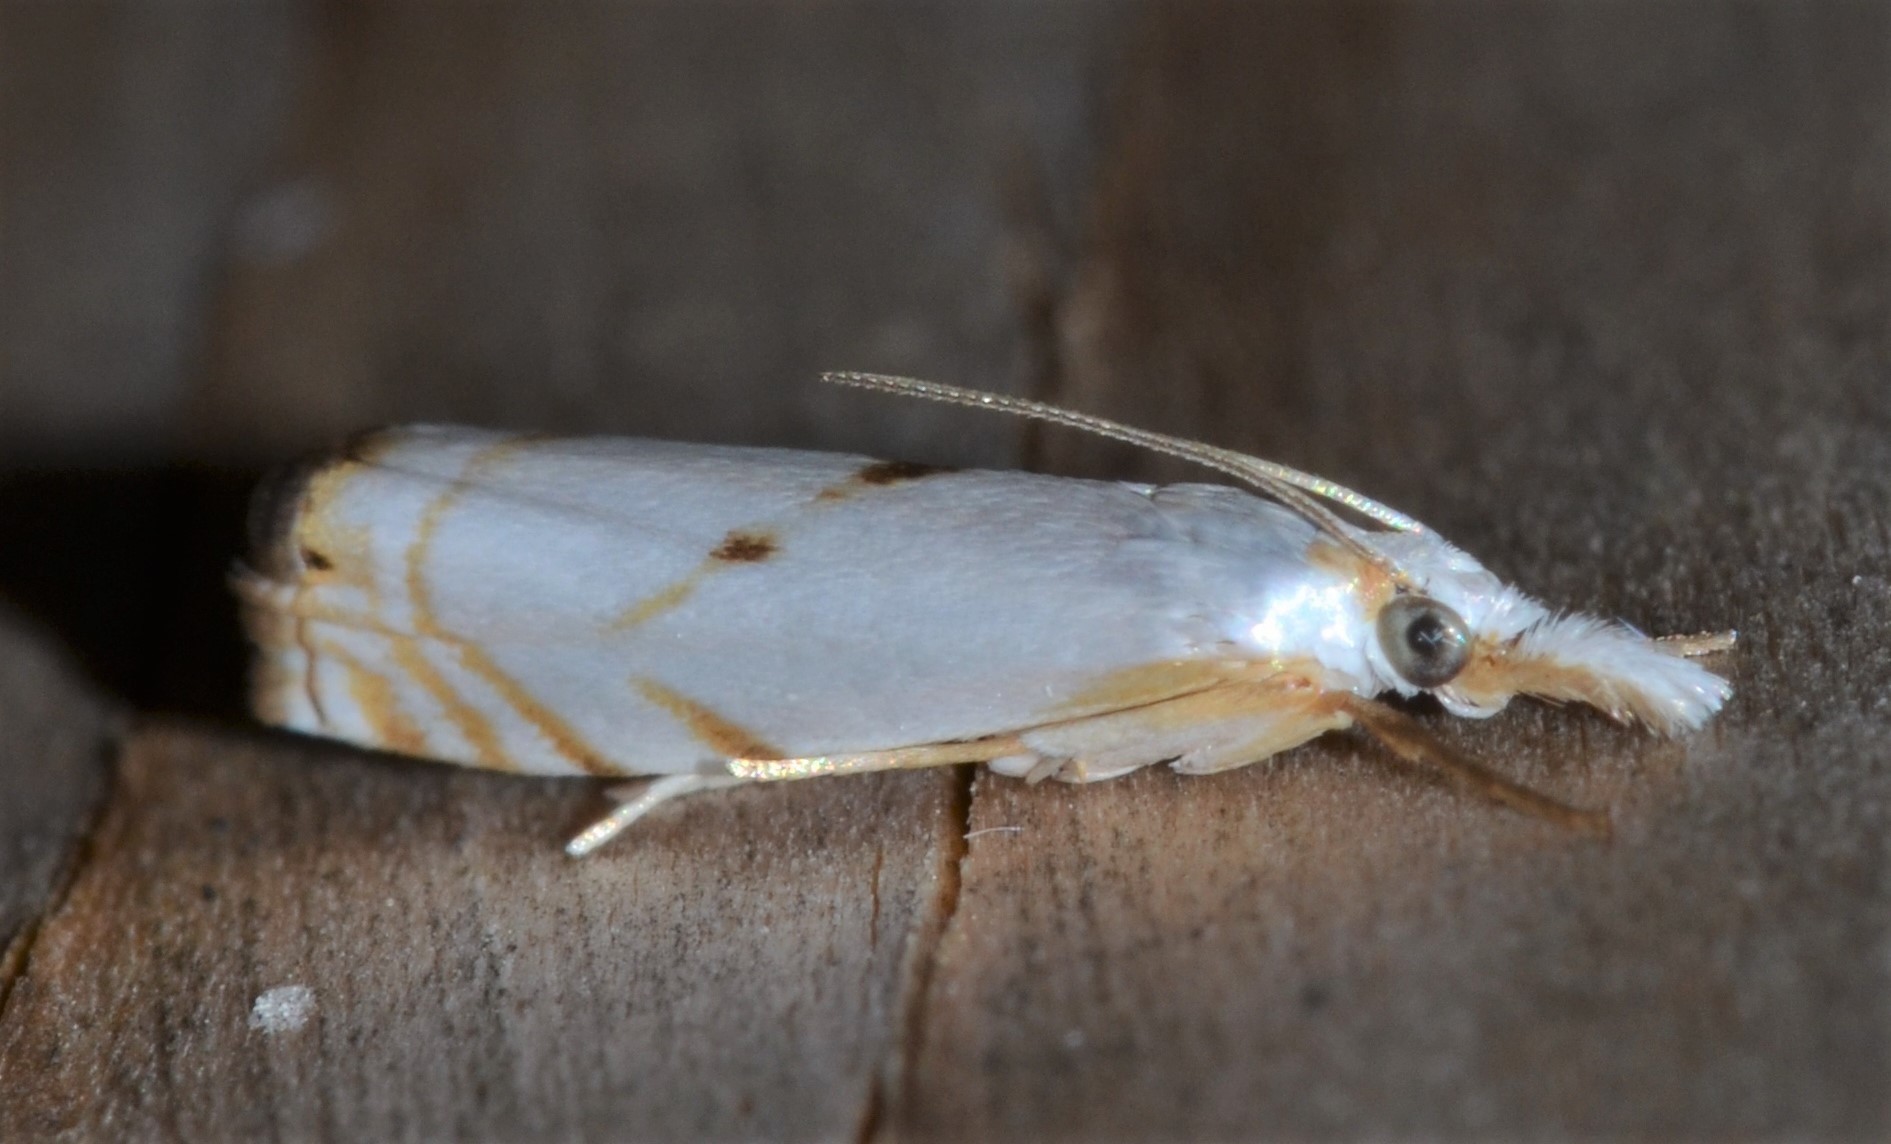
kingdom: Animalia
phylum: Arthropoda
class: Insecta
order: Lepidoptera
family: Crambidae
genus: Microcrambus
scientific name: Microcrambus biguttellus
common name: Gold-stripe grass-veneer moth
